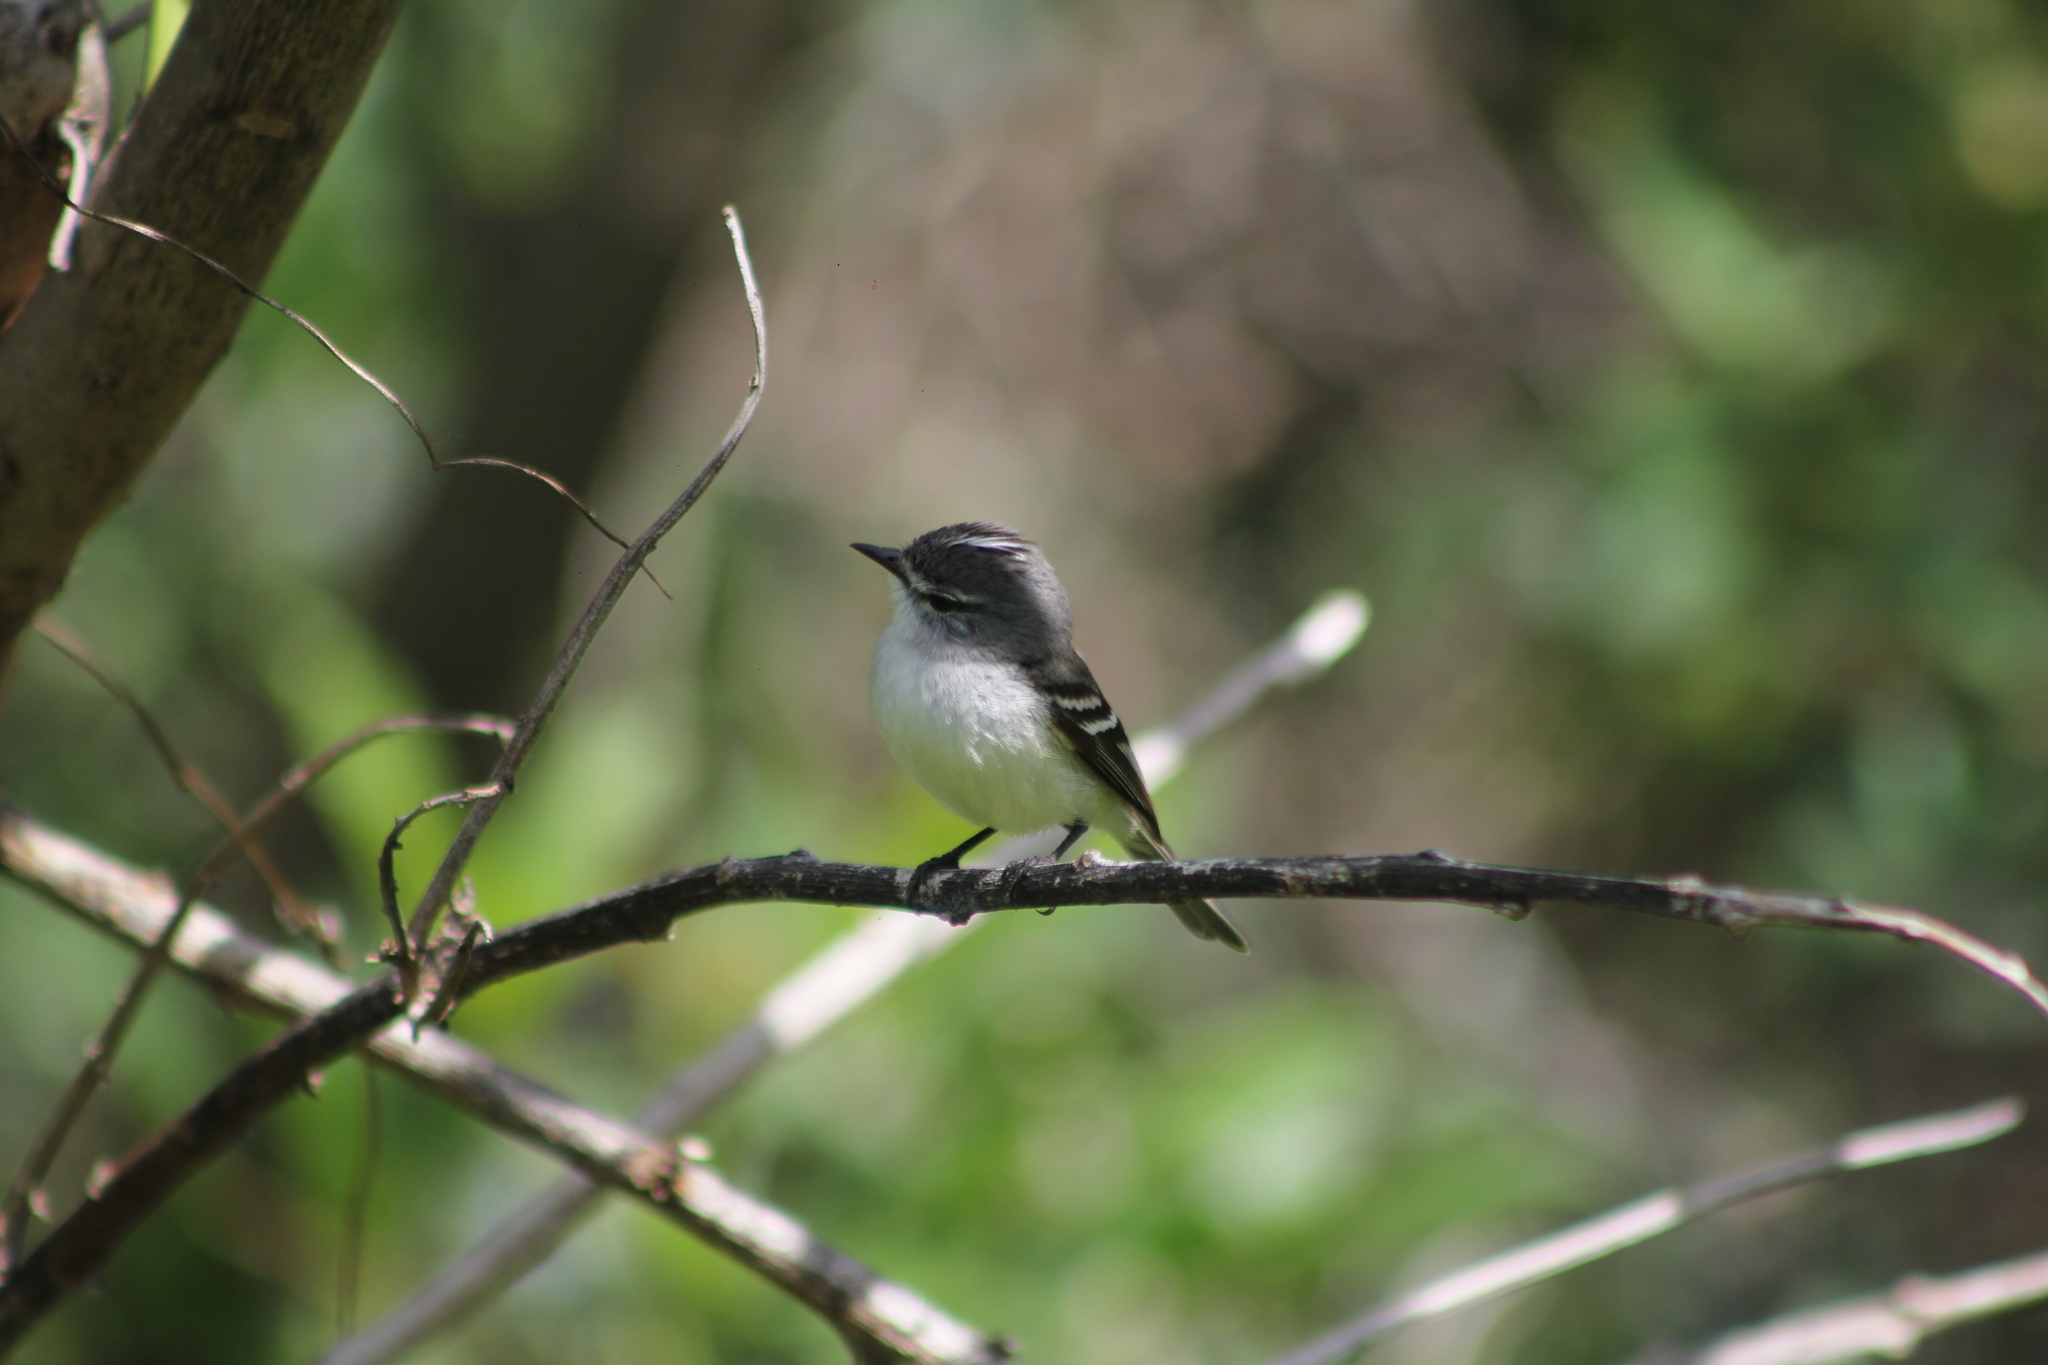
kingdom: Animalia
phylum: Chordata
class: Aves
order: Passeriformes
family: Tyrannidae
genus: Serpophaga
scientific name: Serpophaga subcristata
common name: White-crested tyrannulet
